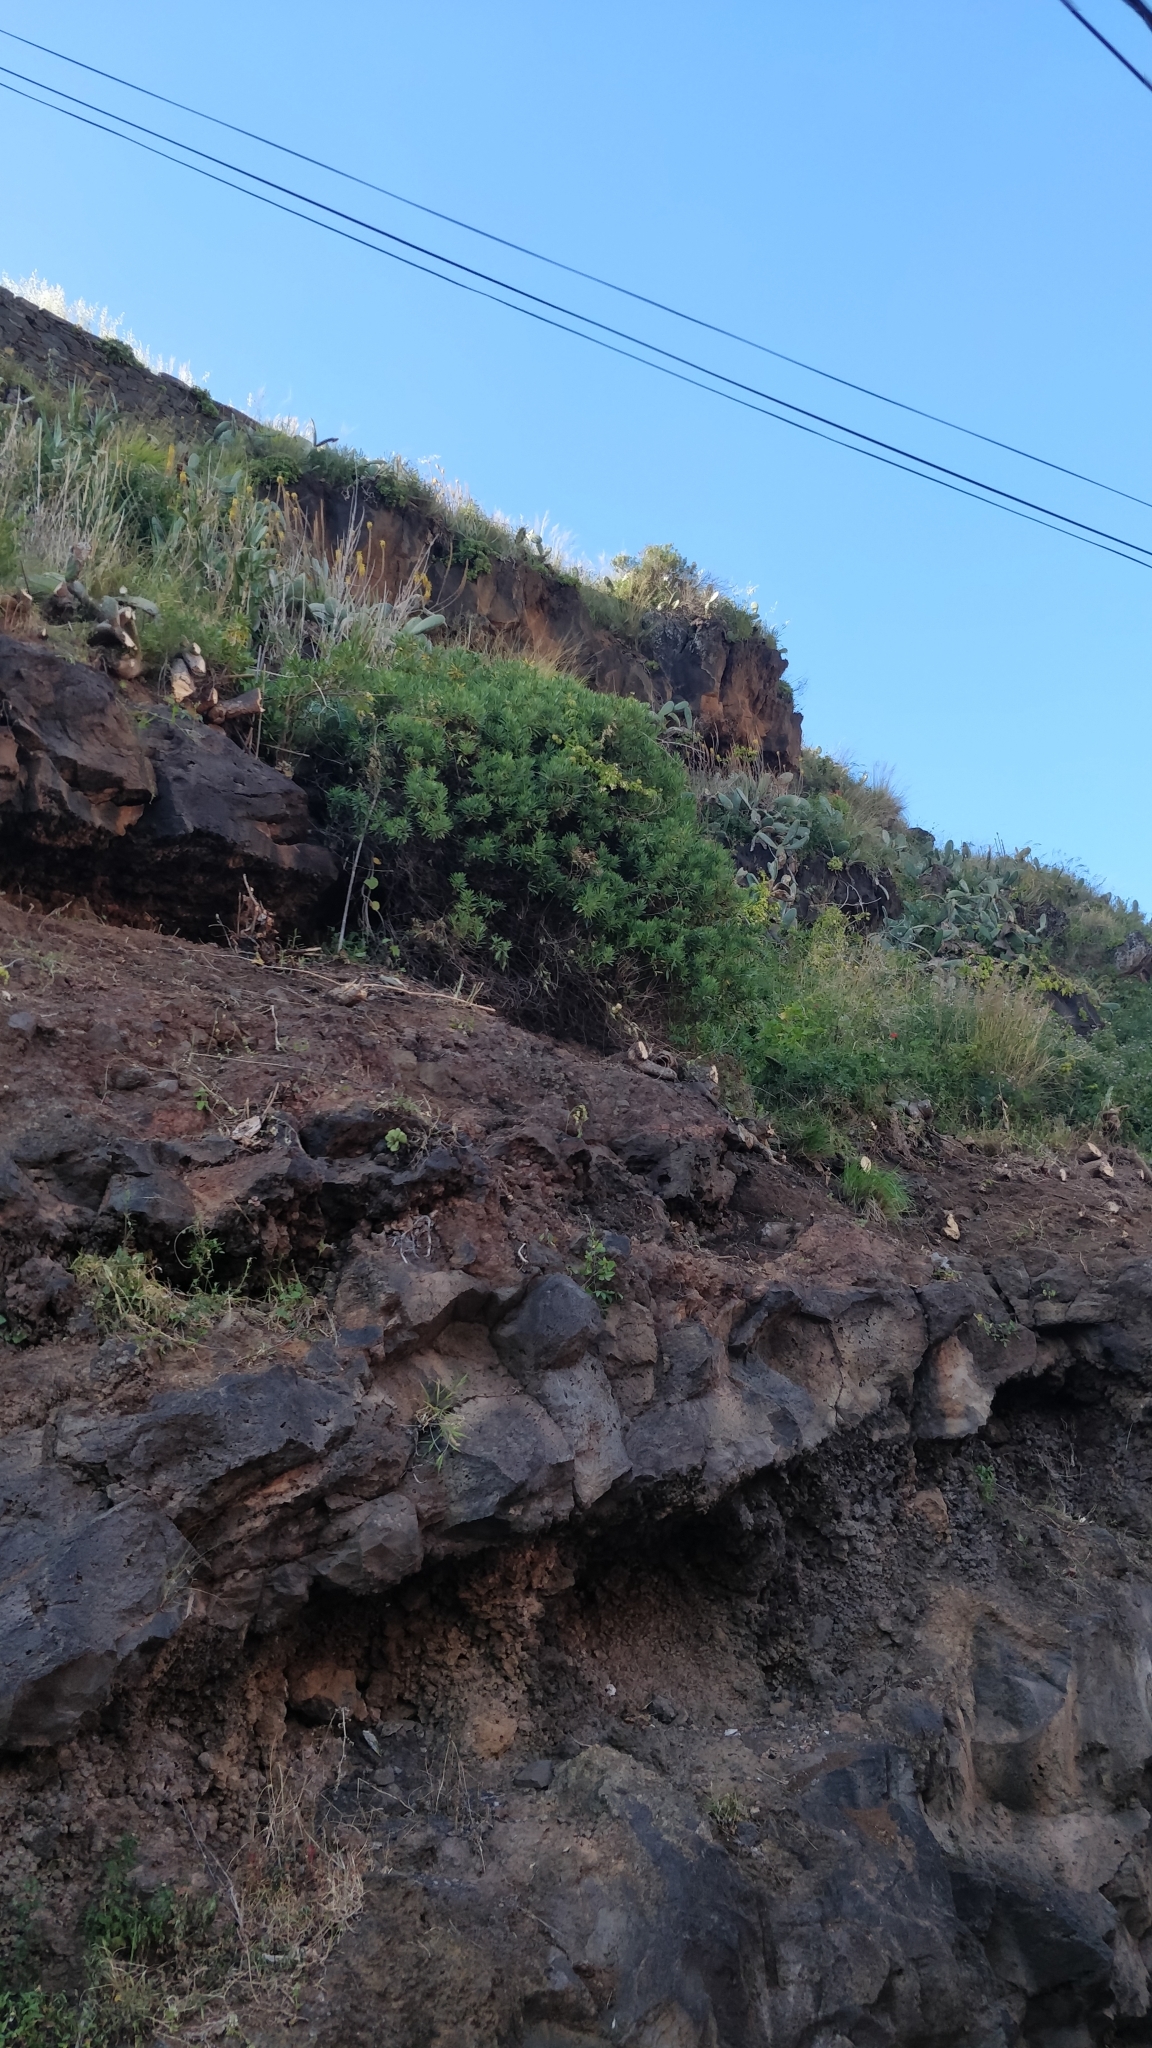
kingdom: Plantae
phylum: Tracheophyta
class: Magnoliopsida
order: Lamiales
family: Plantaginaceae
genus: Globularia
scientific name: Globularia salicina
